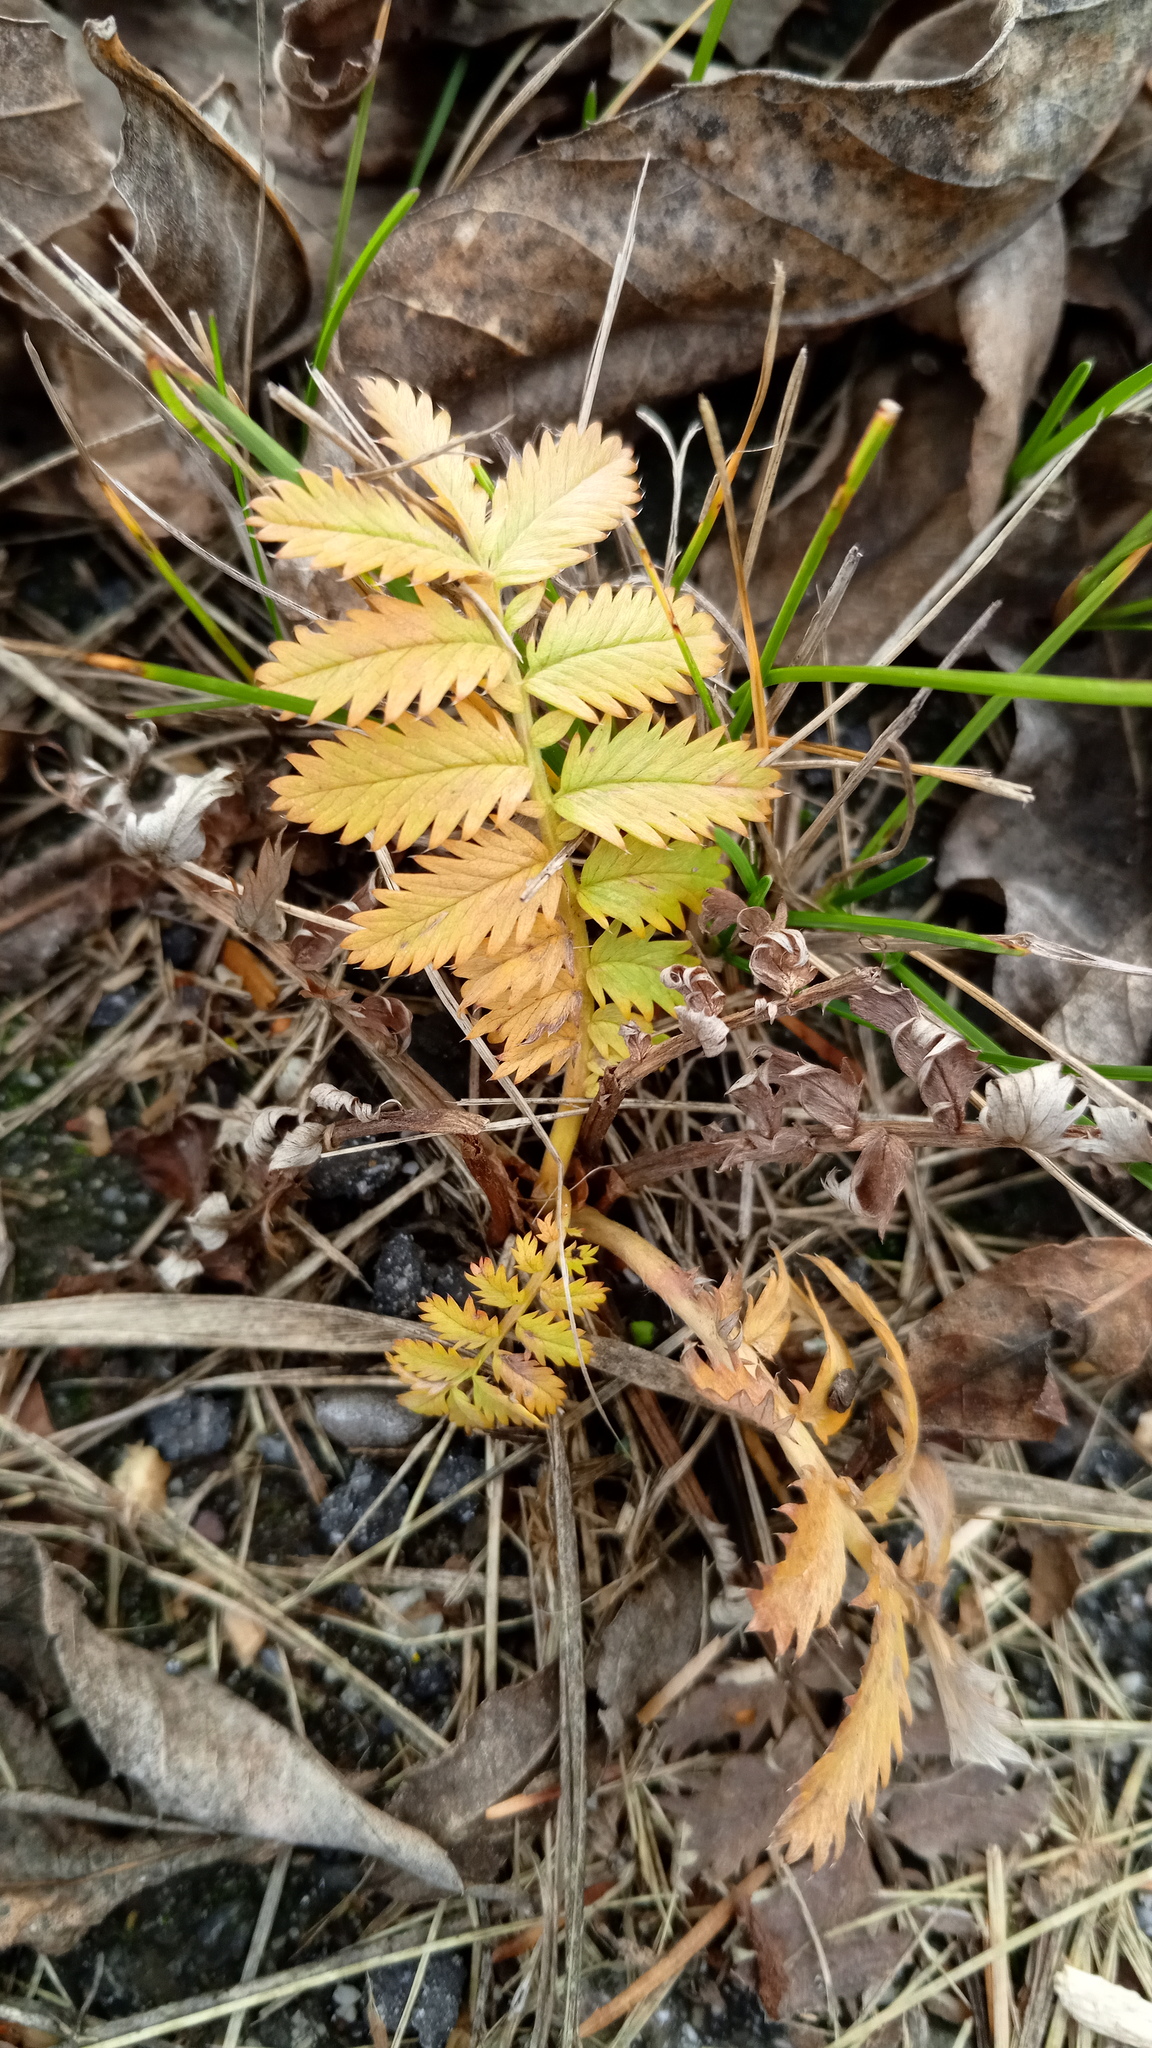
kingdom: Plantae
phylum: Tracheophyta
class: Magnoliopsida
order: Rosales
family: Rosaceae
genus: Argentina
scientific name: Argentina anserina
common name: Common silverweed
